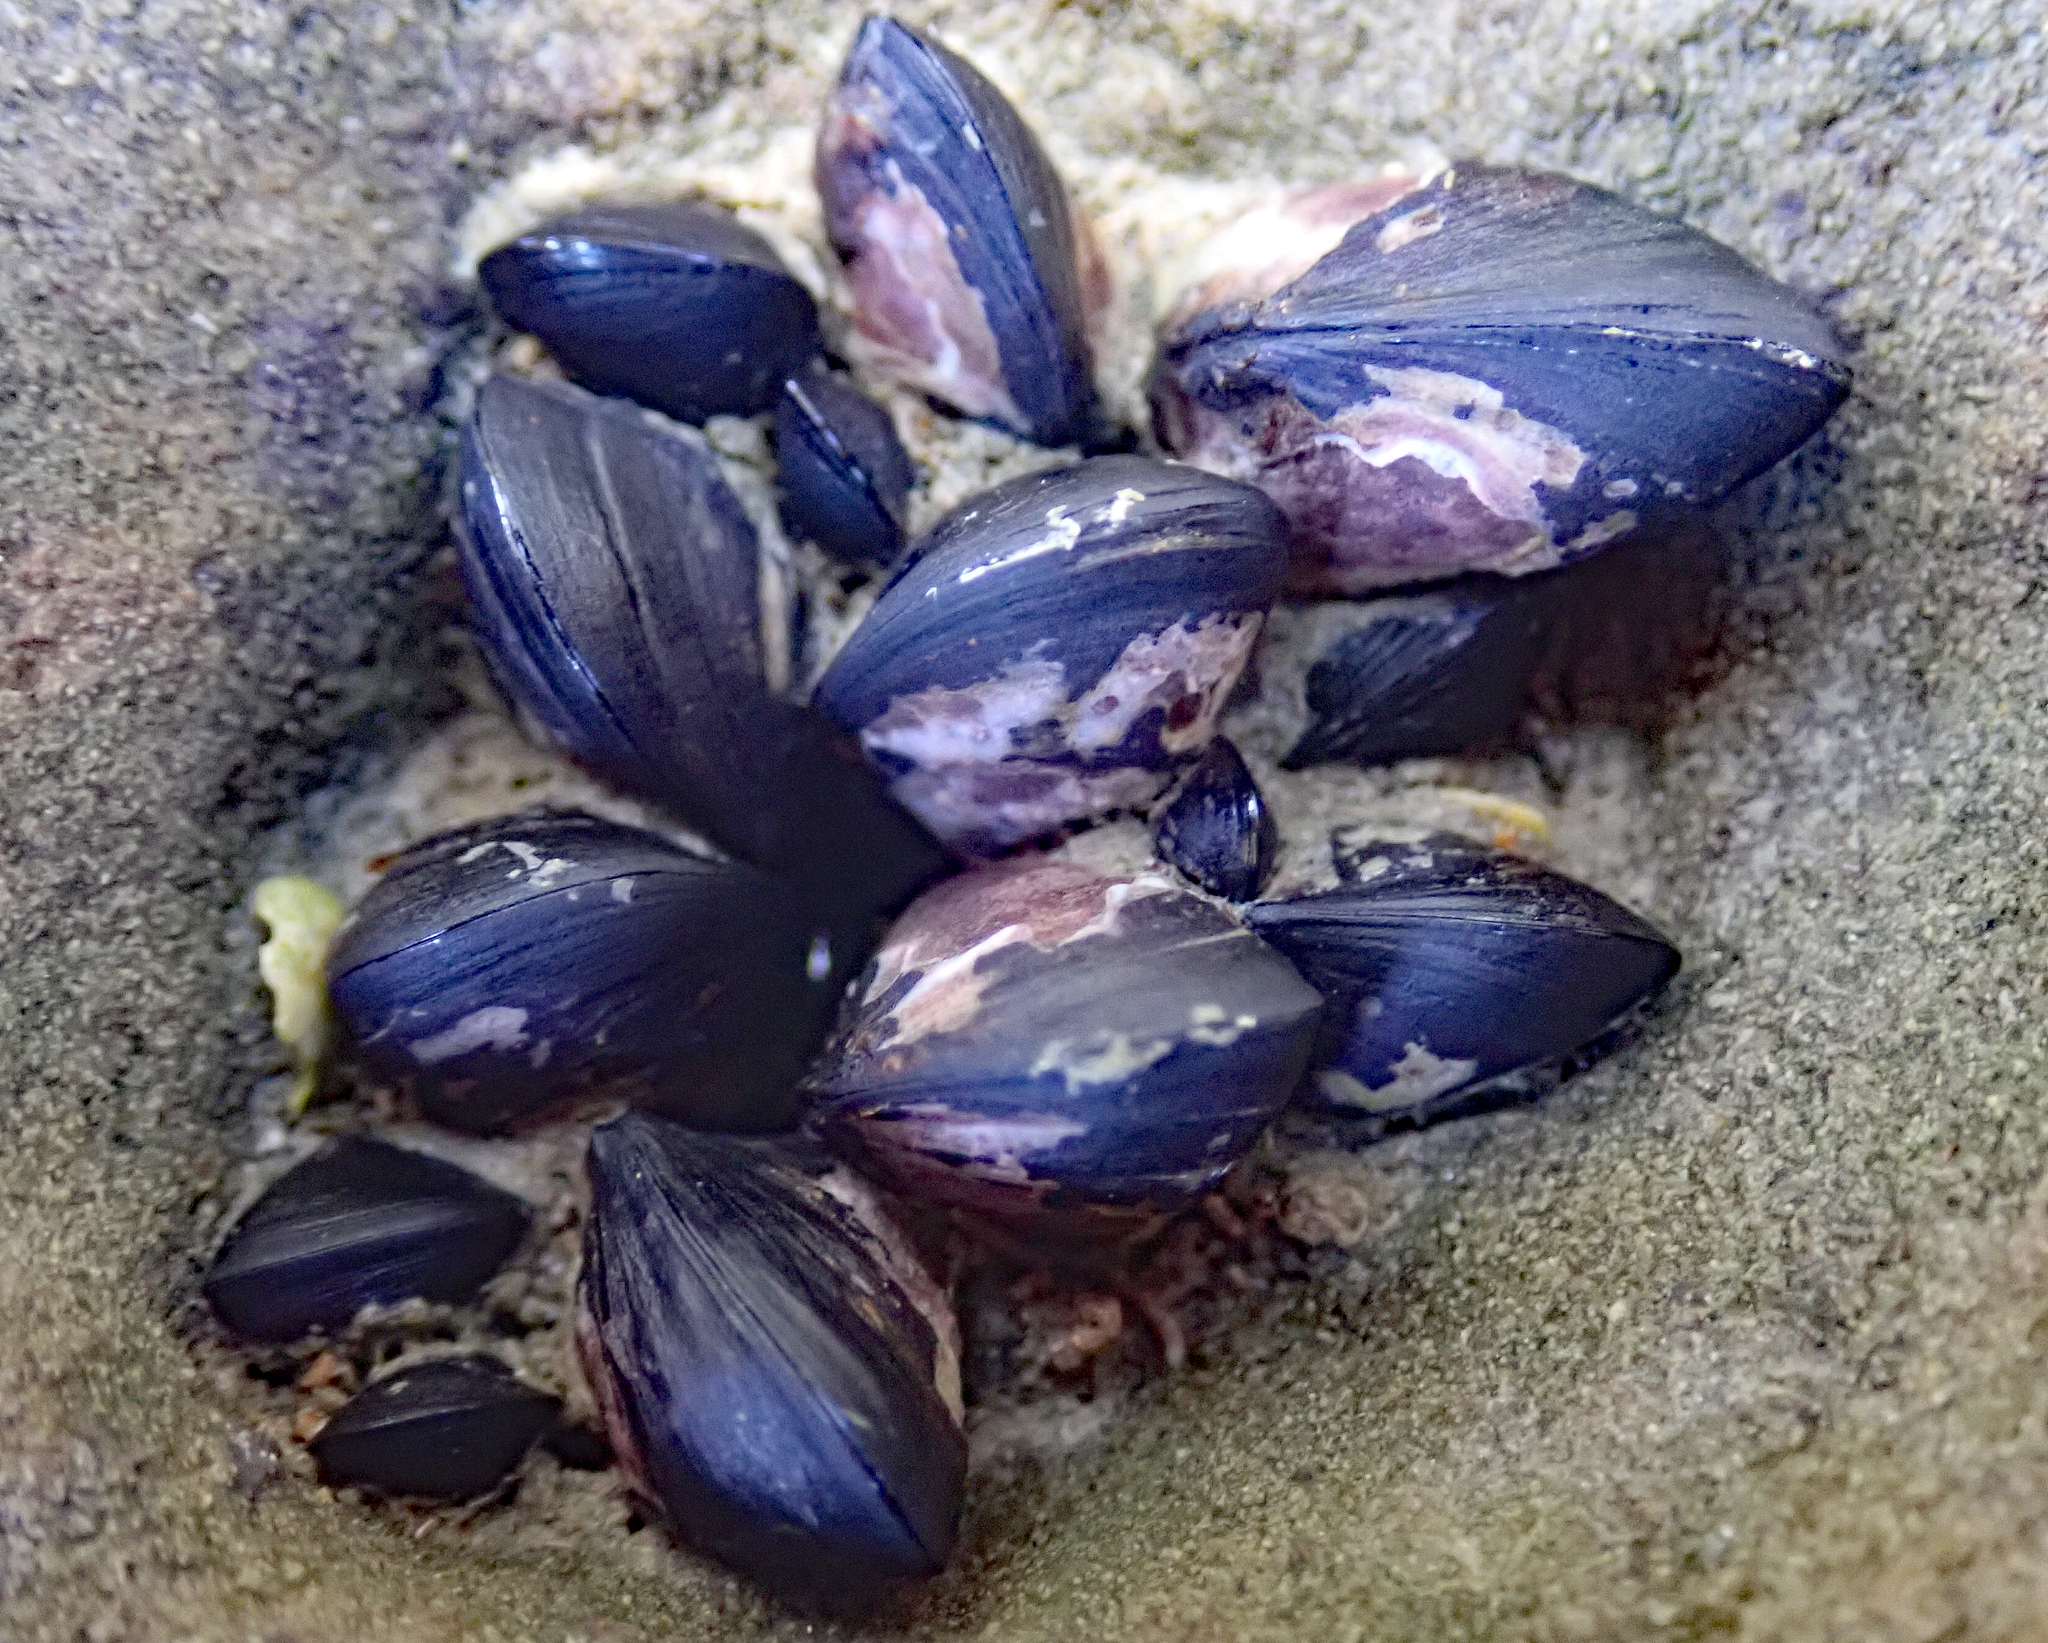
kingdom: Animalia
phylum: Mollusca
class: Bivalvia
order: Mytilida
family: Mytilidae
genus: Xenostrobus
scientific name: Xenostrobus neozelanicus
